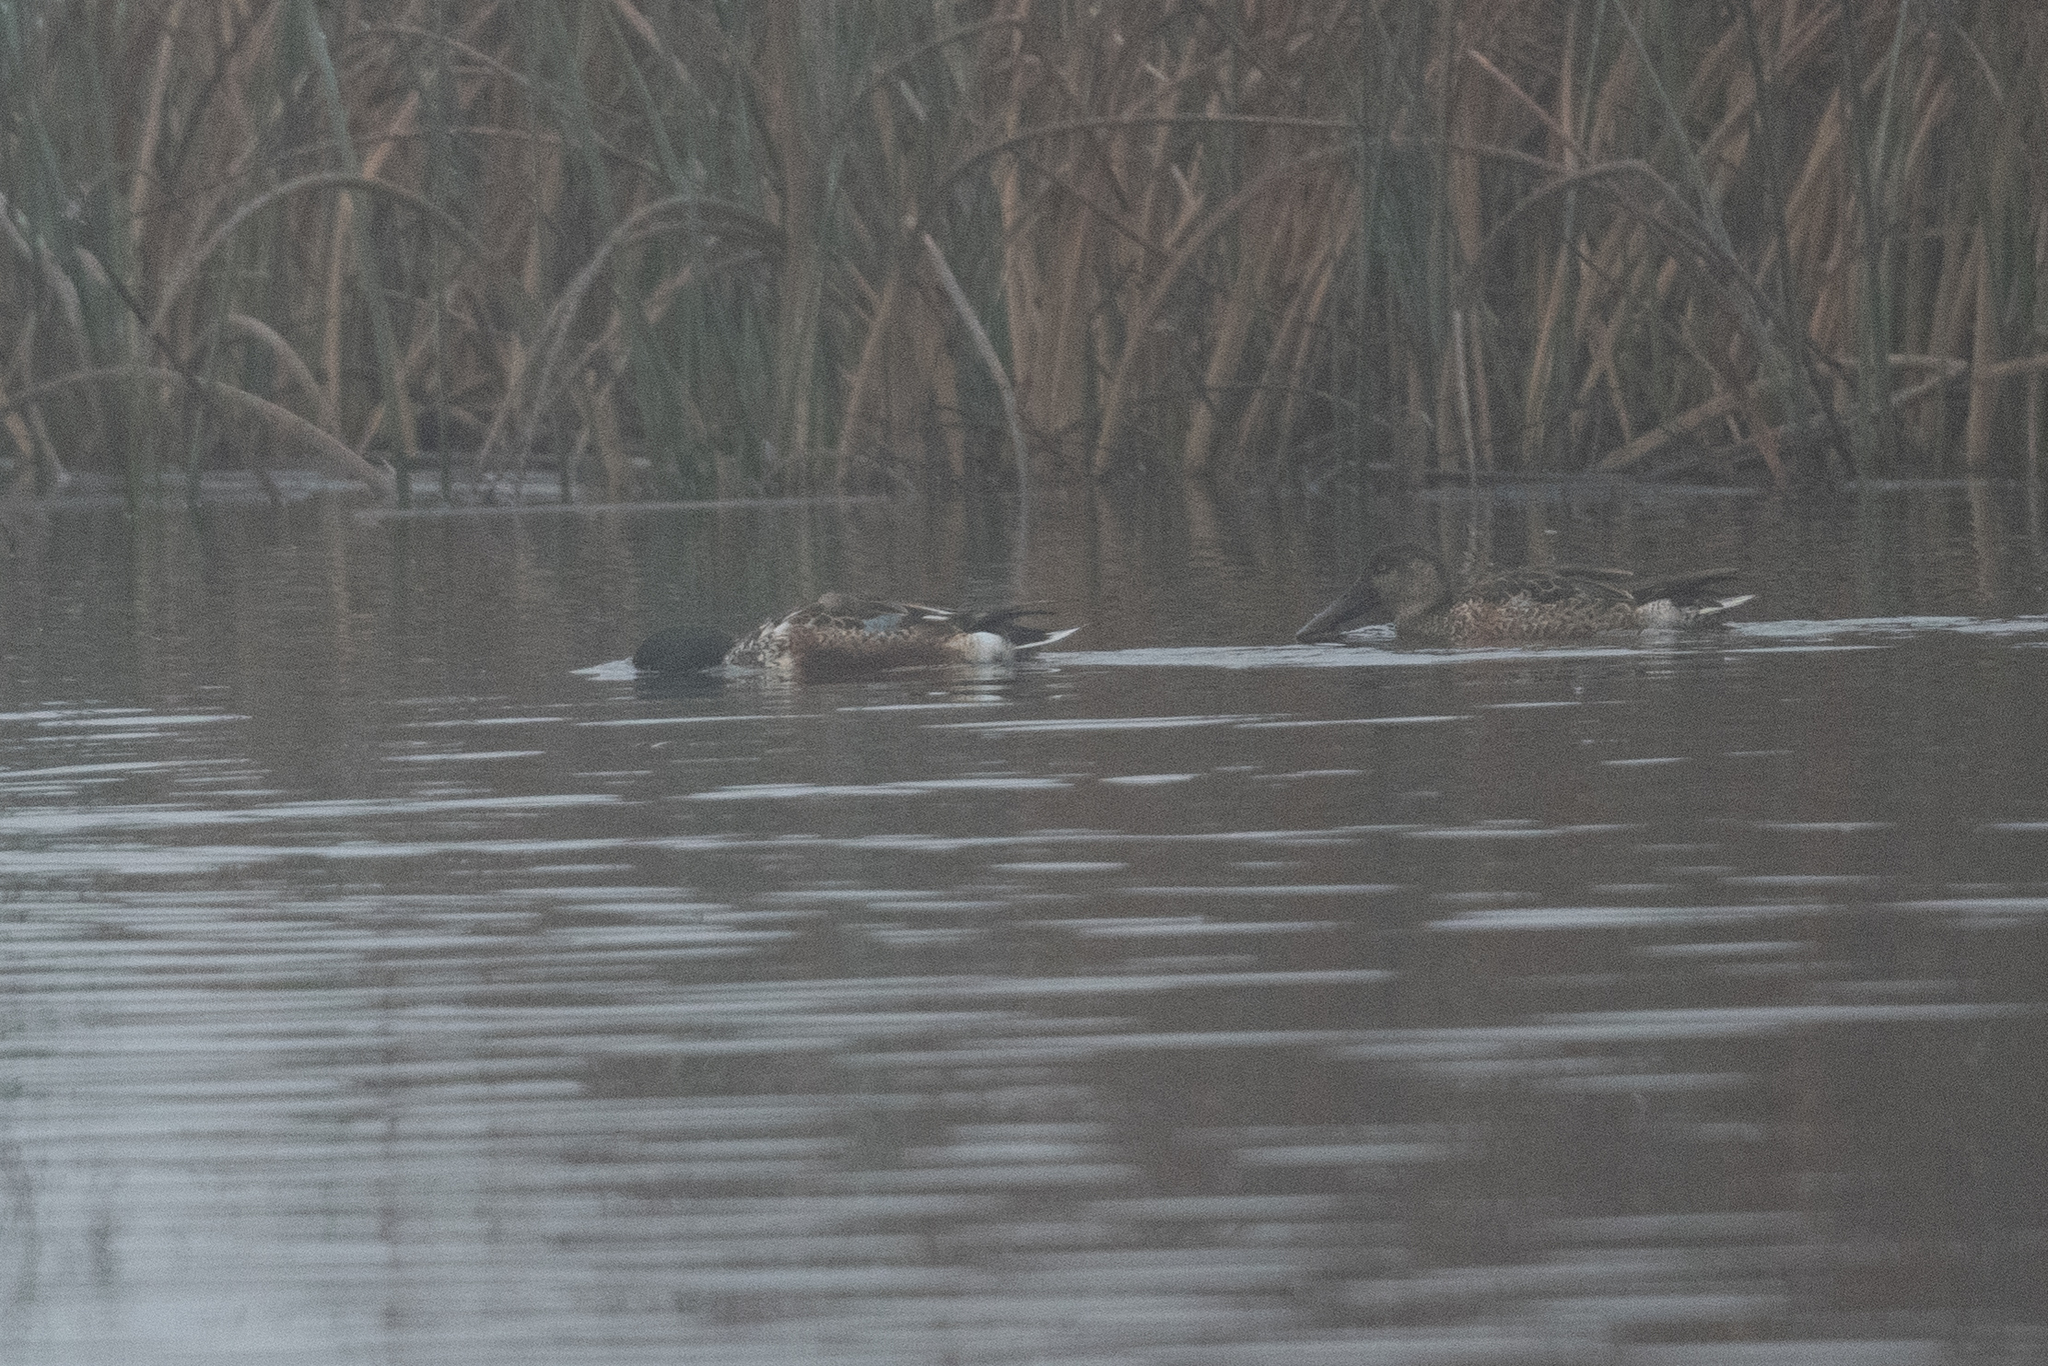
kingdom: Animalia
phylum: Chordata
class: Aves
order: Anseriformes
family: Anatidae
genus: Spatula
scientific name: Spatula clypeata
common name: Northern shoveler
